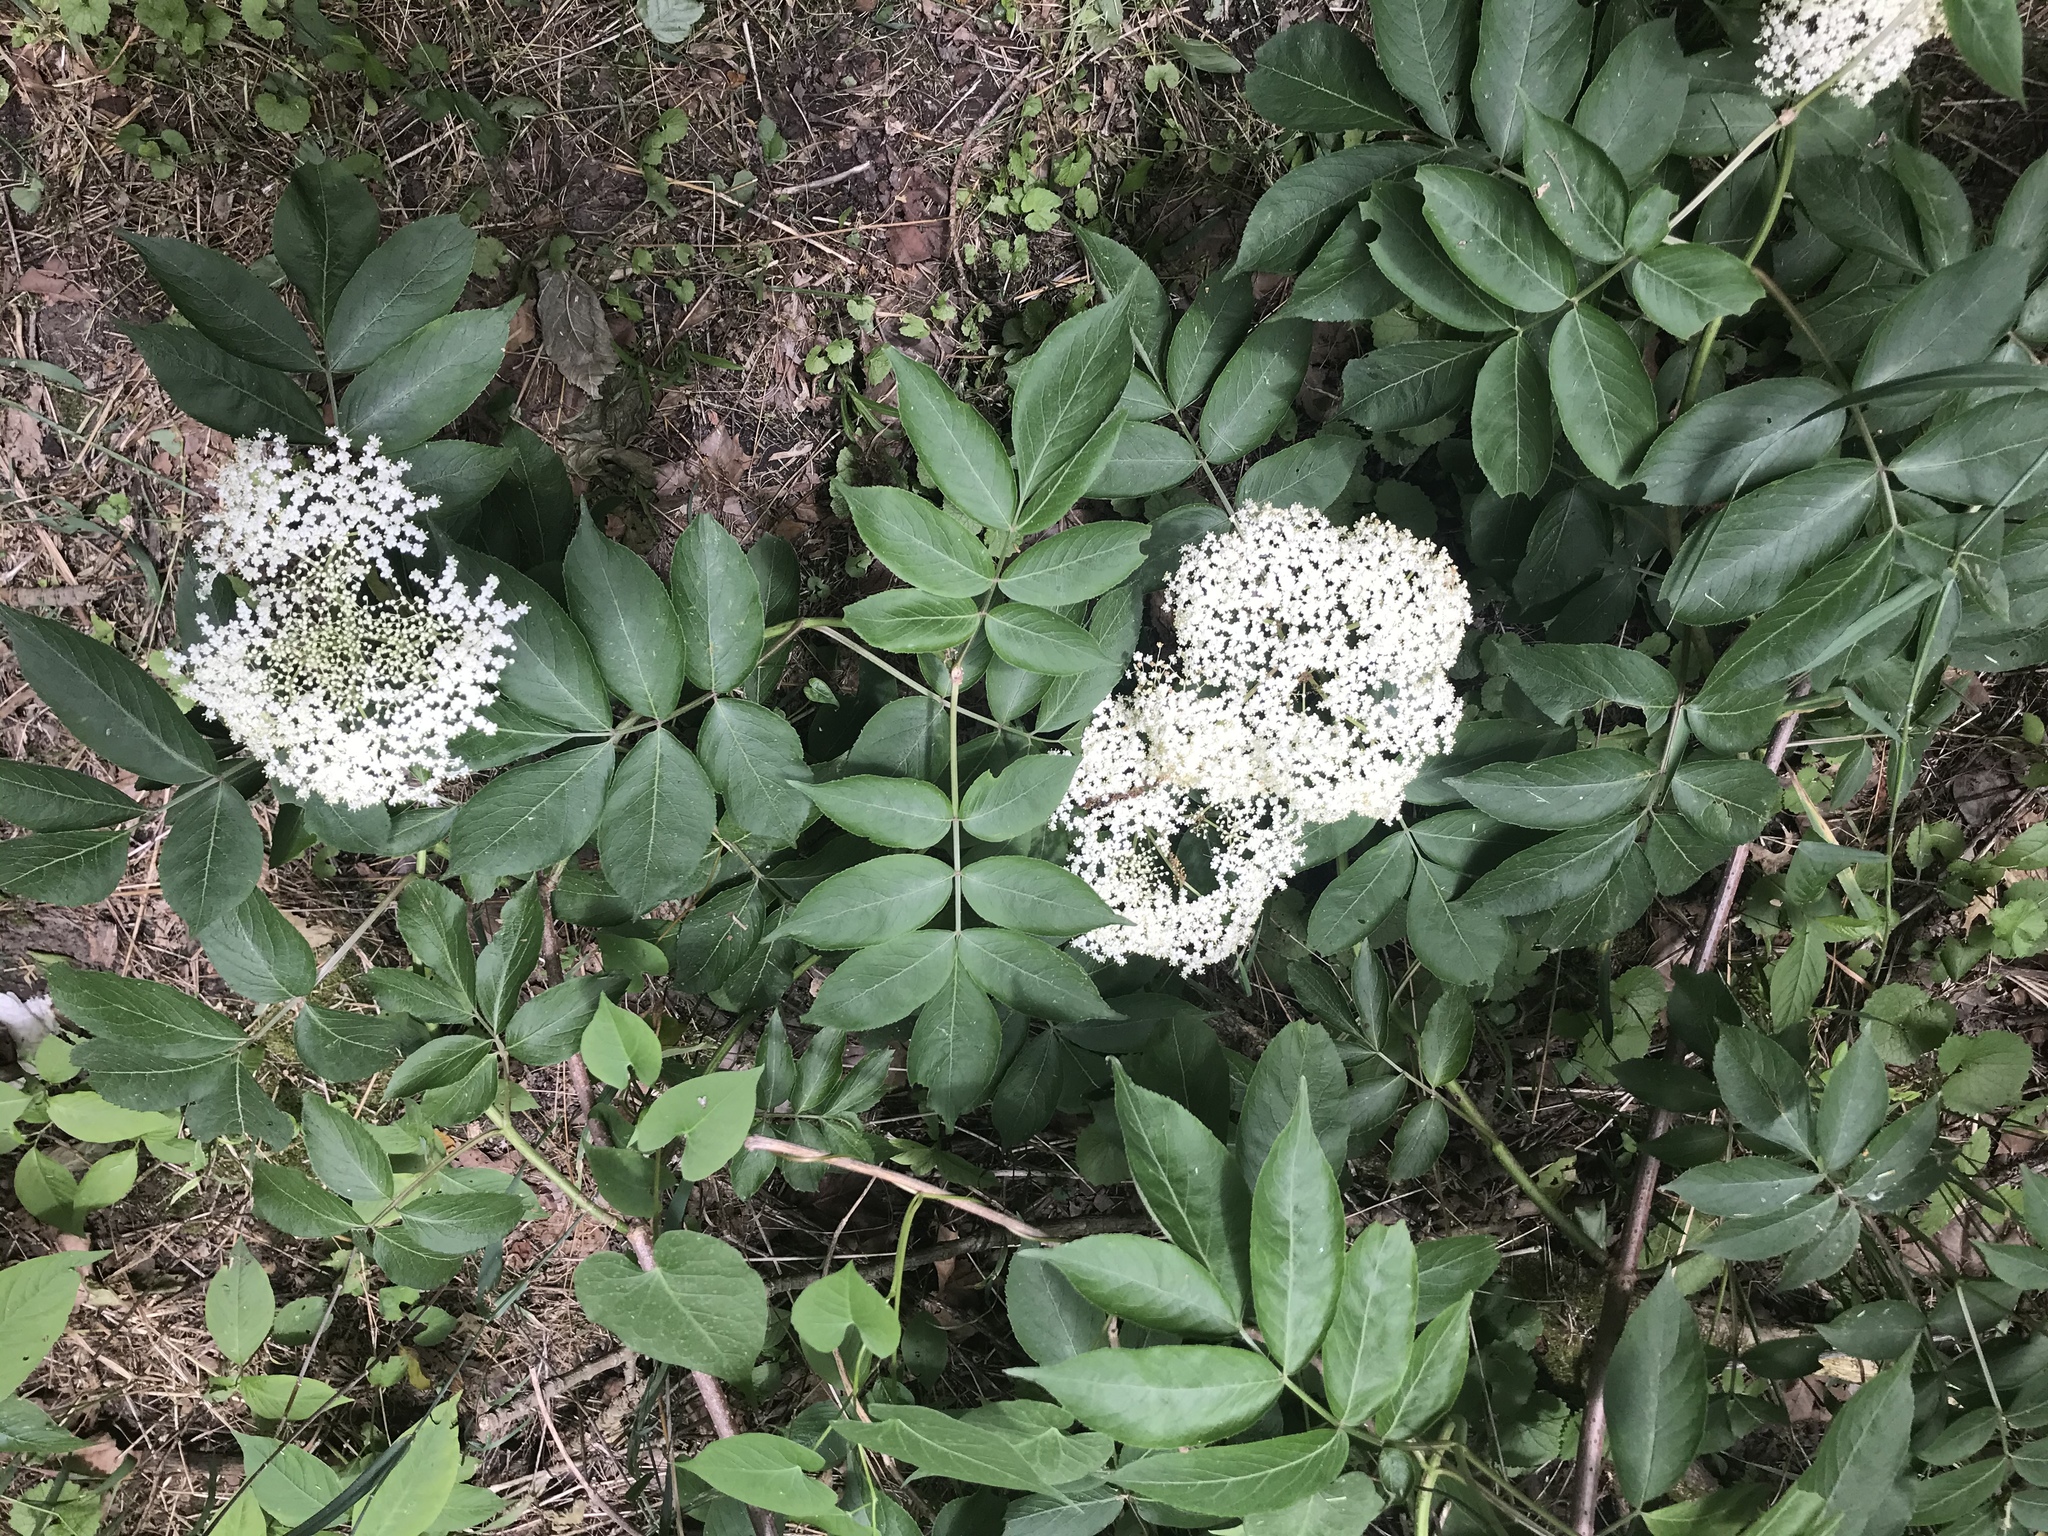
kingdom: Plantae
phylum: Tracheophyta
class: Magnoliopsida
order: Dipsacales
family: Viburnaceae
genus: Sambucus
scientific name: Sambucus canadensis
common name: American elder
